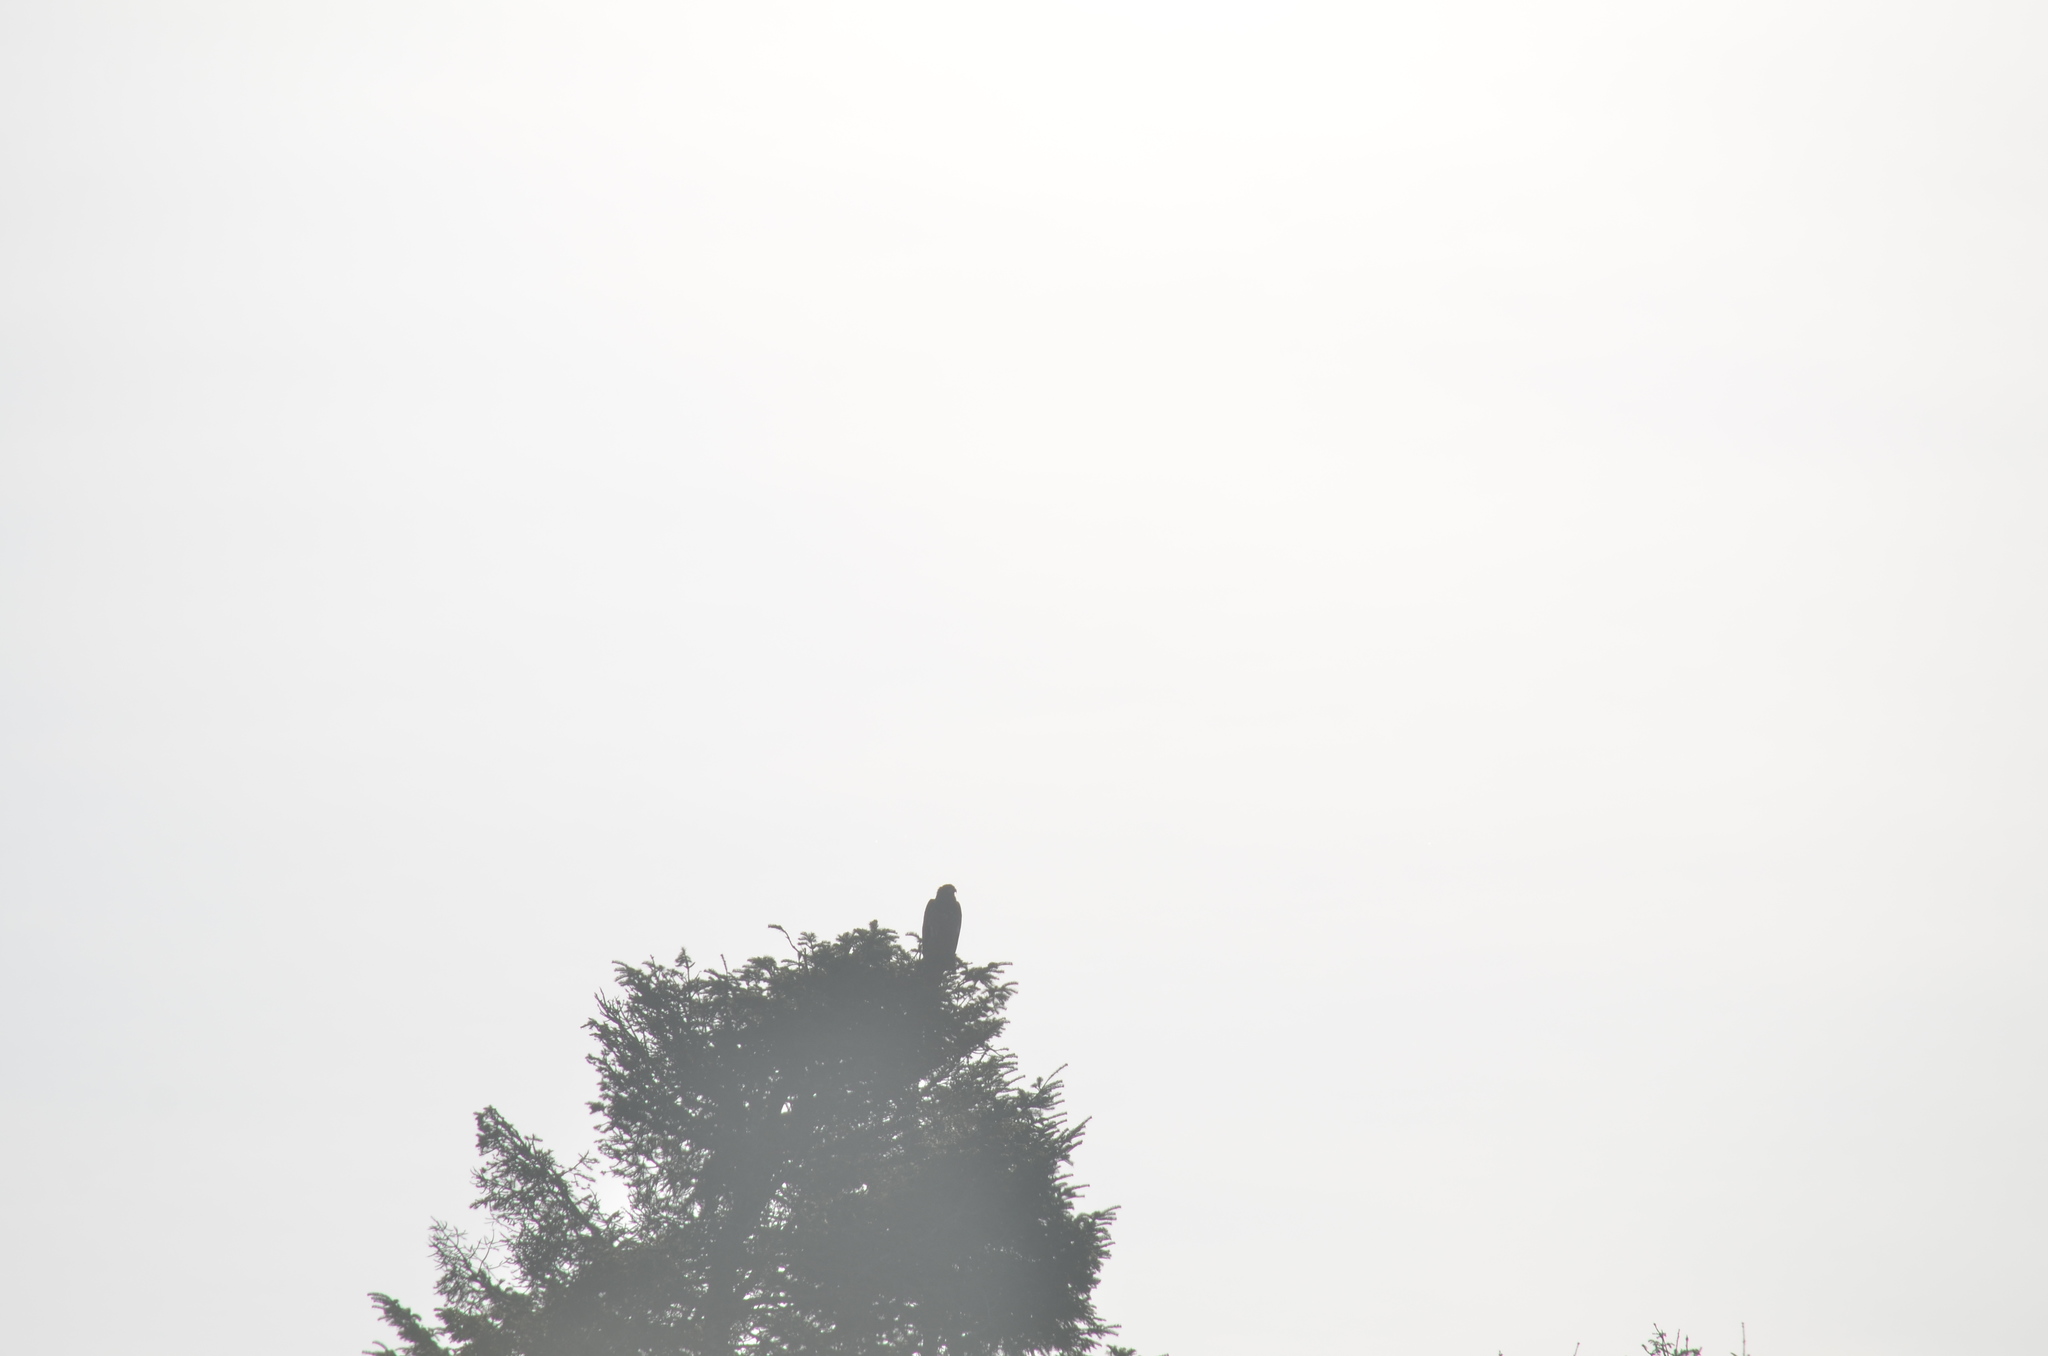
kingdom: Animalia
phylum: Chordata
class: Aves
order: Accipitriformes
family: Accipitridae
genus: Haliaeetus
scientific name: Haliaeetus leucocephalus
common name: Bald eagle
